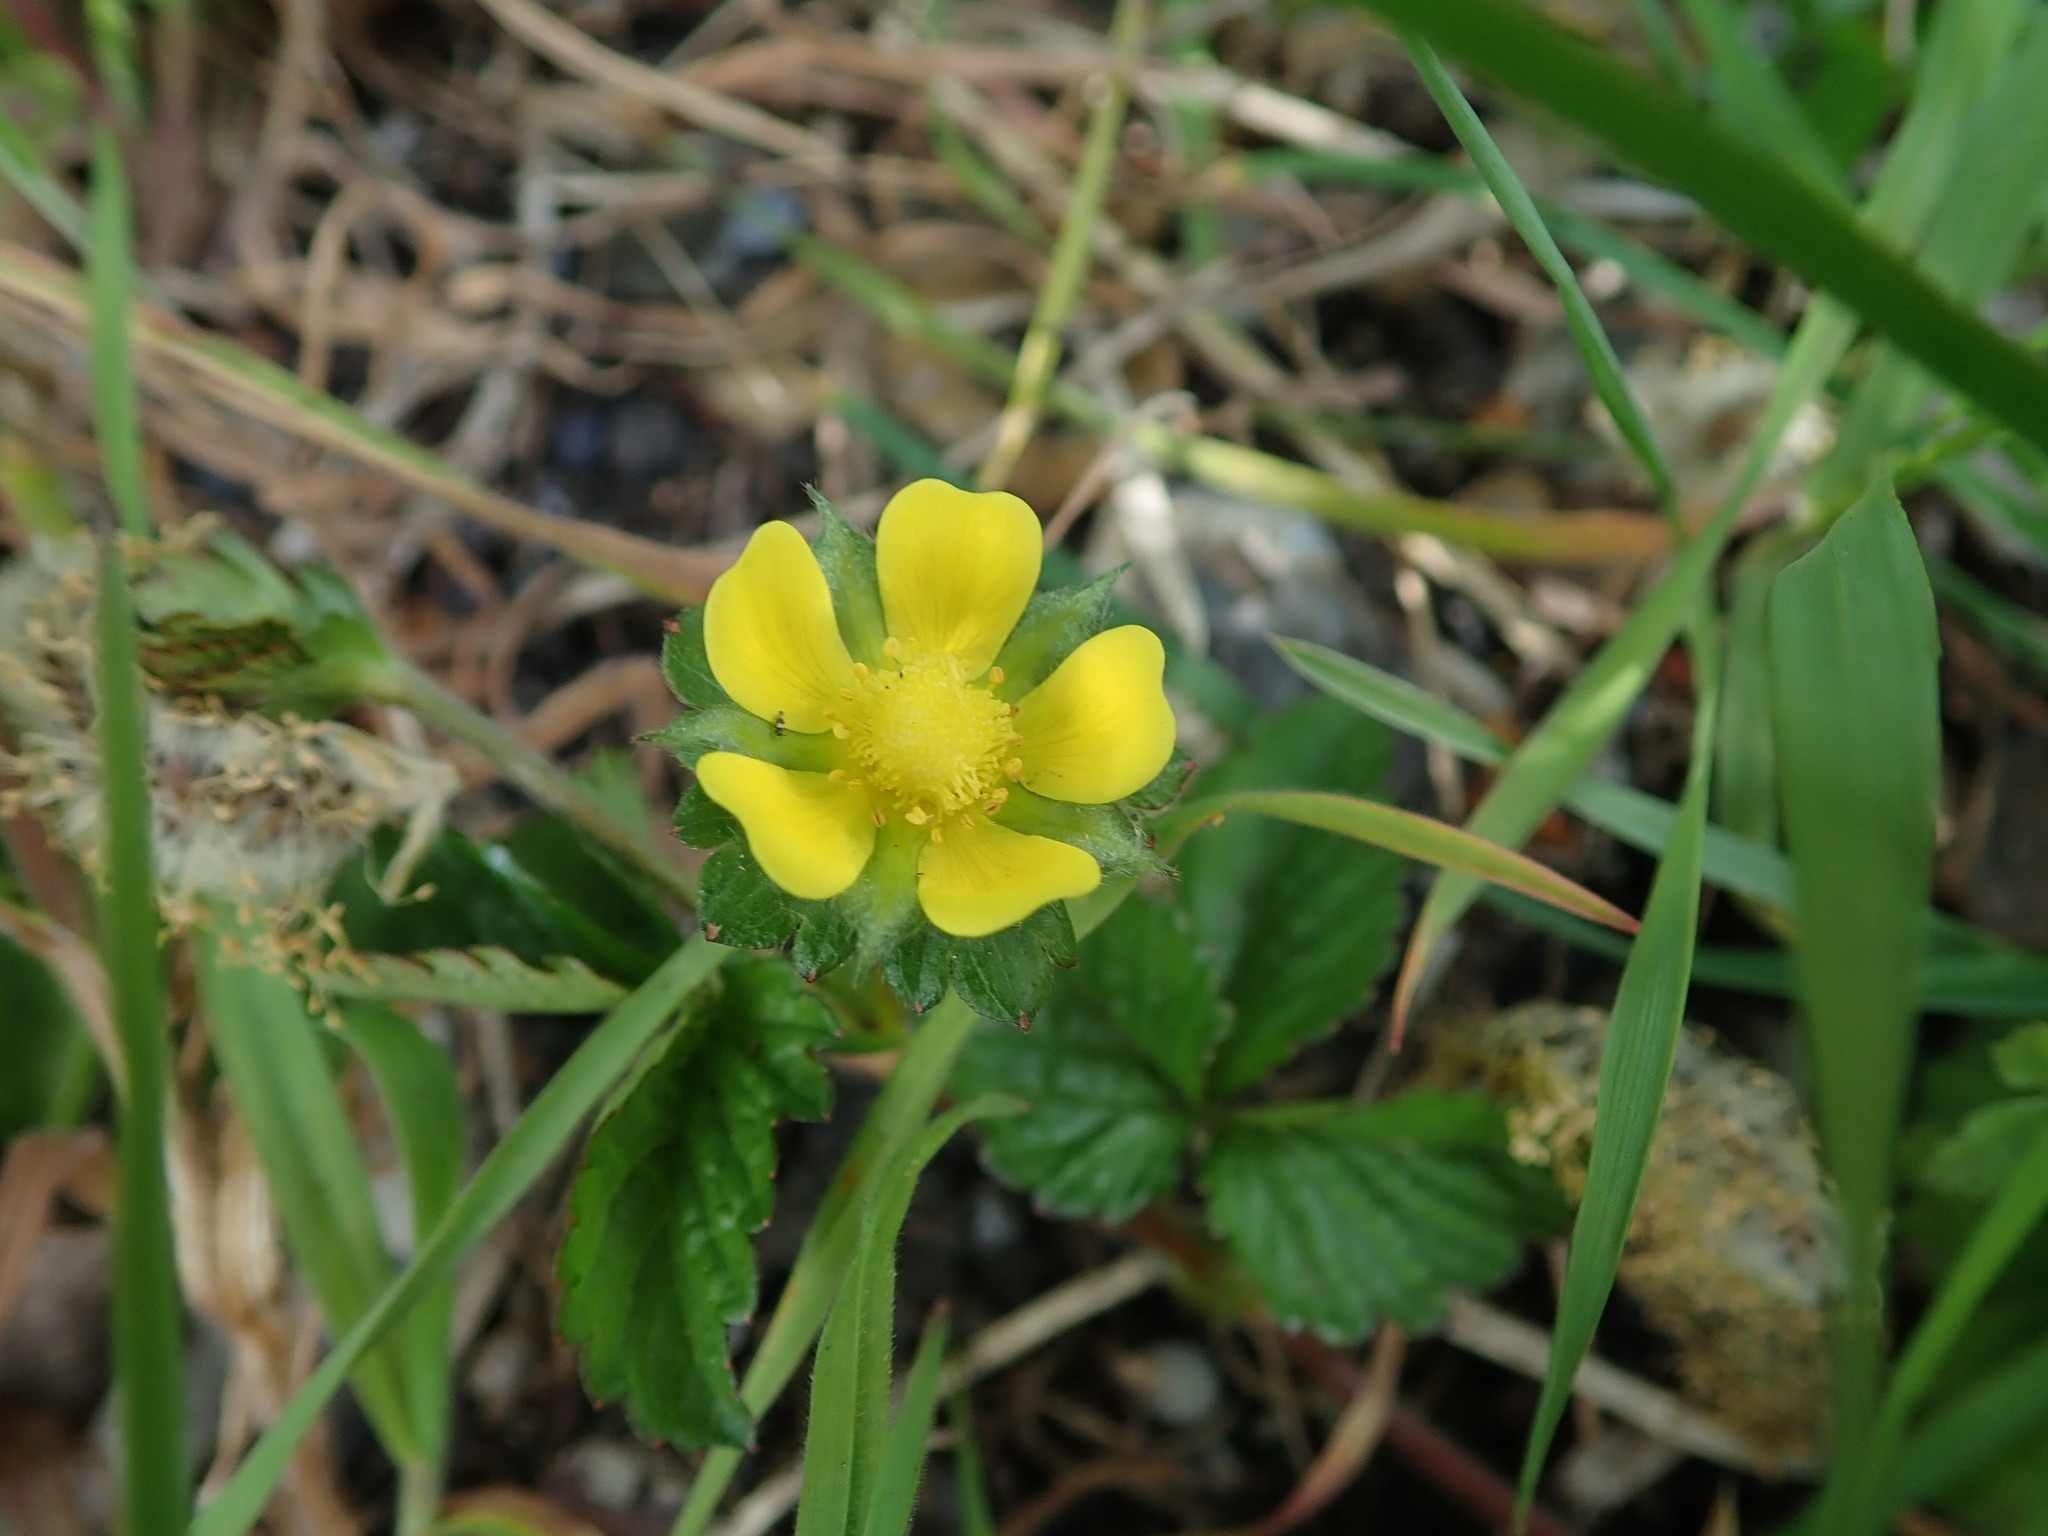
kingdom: Plantae
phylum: Tracheophyta
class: Magnoliopsida
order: Rosales
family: Rosaceae
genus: Potentilla
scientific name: Potentilla indica
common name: Yellow-flowered strawberry
